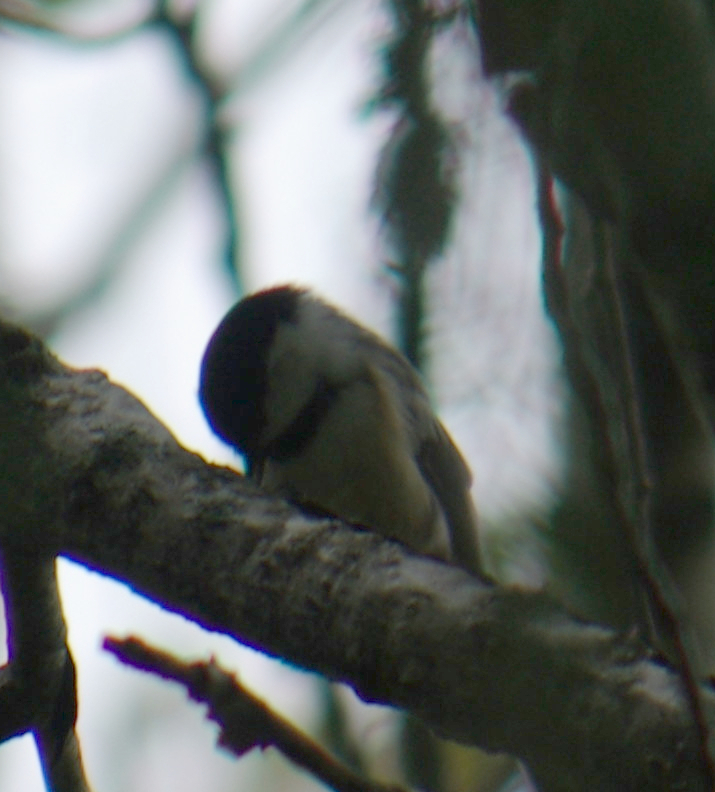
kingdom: Animalia
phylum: Chordata
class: Aves
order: Passeriformes
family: Paridae
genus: Poecile
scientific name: Poecile atricapillus
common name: Black-capped chickadee
